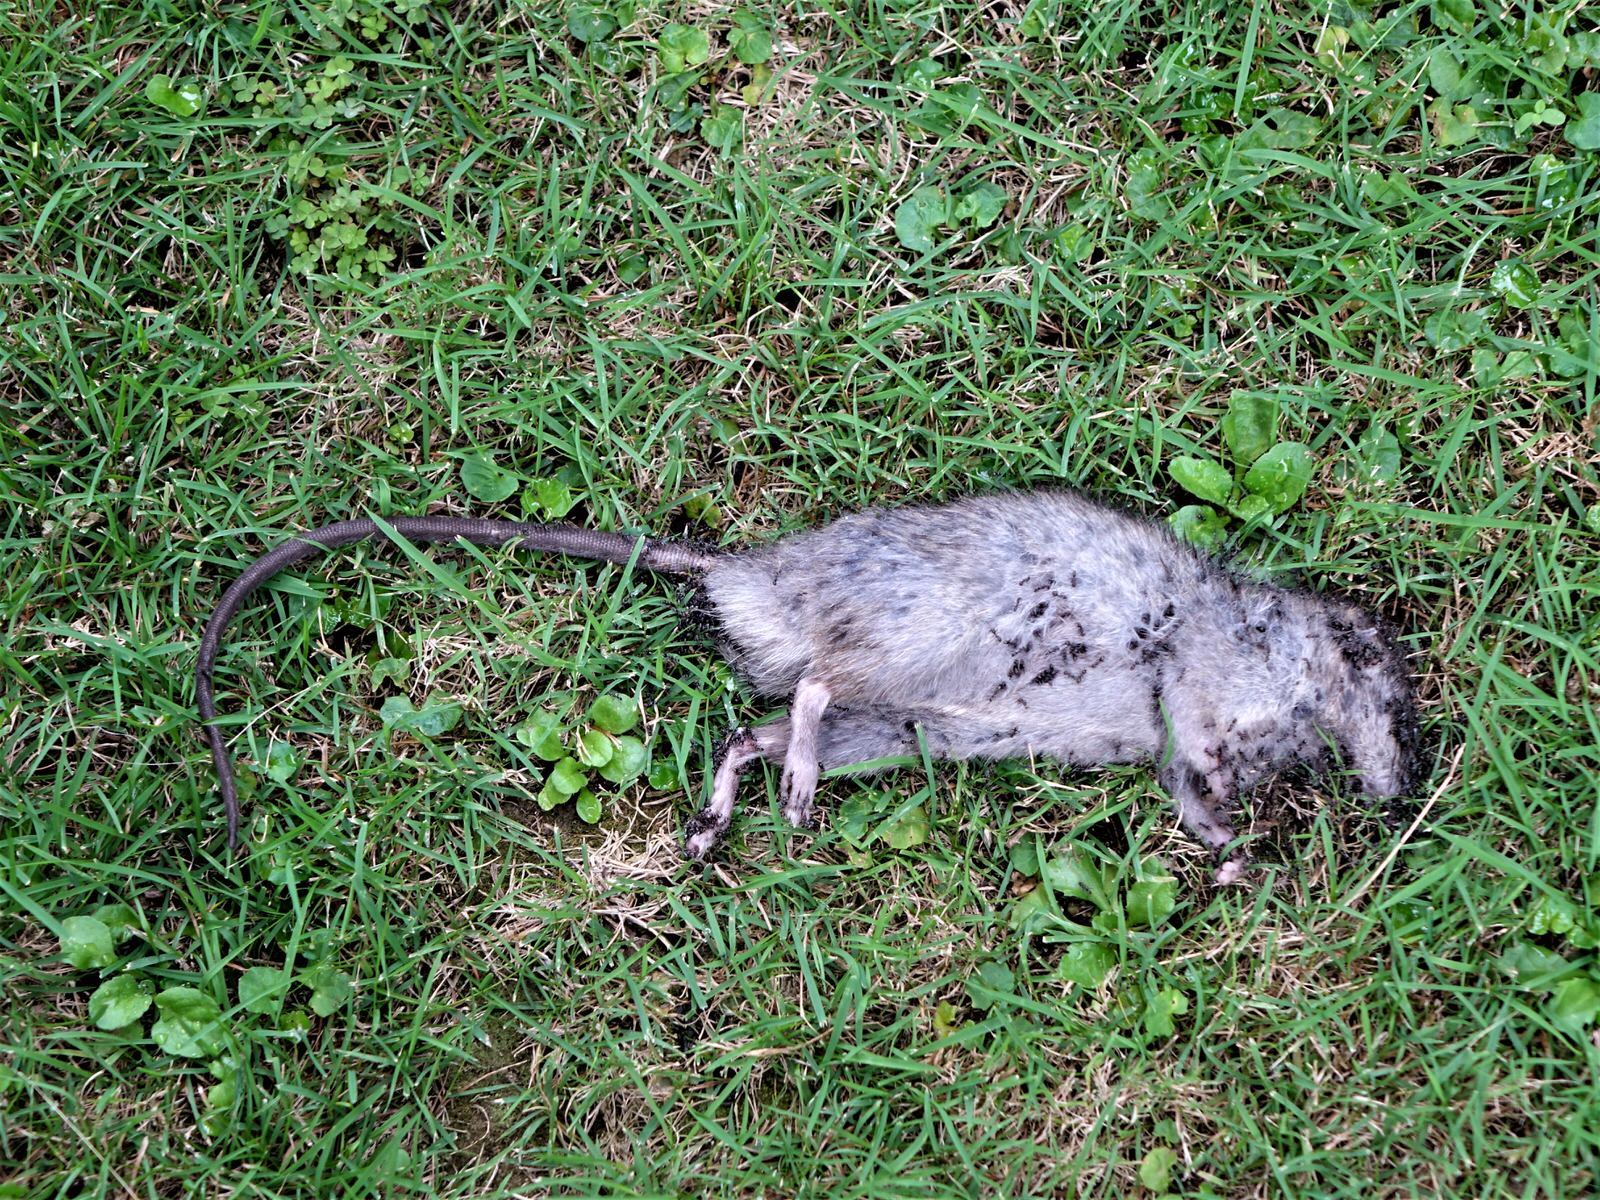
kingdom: Animalia
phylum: Chordata
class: Mammalia
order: Rodentia
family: Muridae
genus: Rattus
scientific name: Rattus rattus
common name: Black rat
